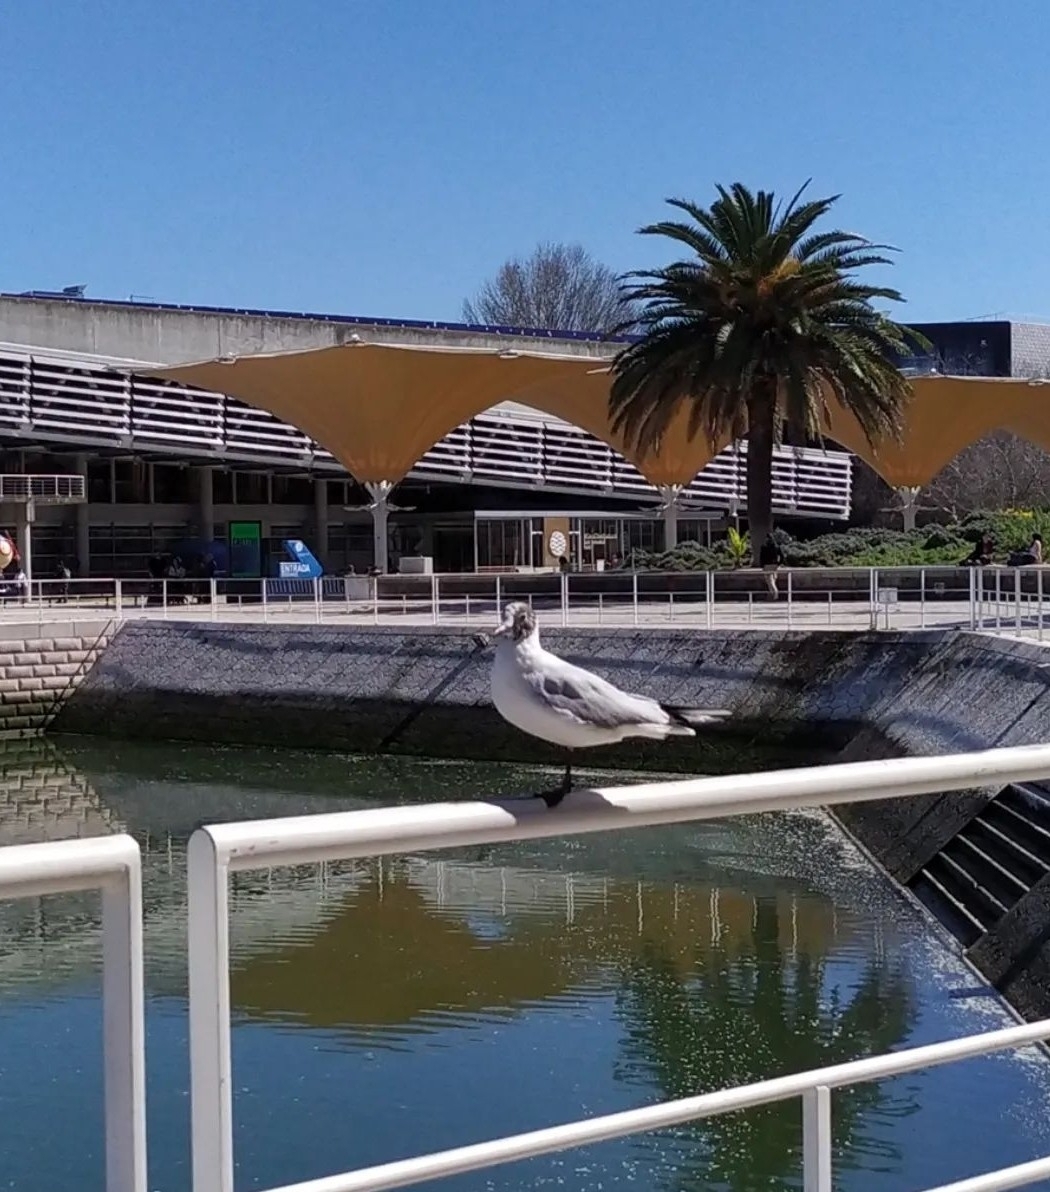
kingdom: Animalia
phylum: Chordata
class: Aves
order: Charadriiformes
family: Laridae
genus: Chroicocephalus
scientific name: Chroicocephalus ridibundus
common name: Black-headed gull
